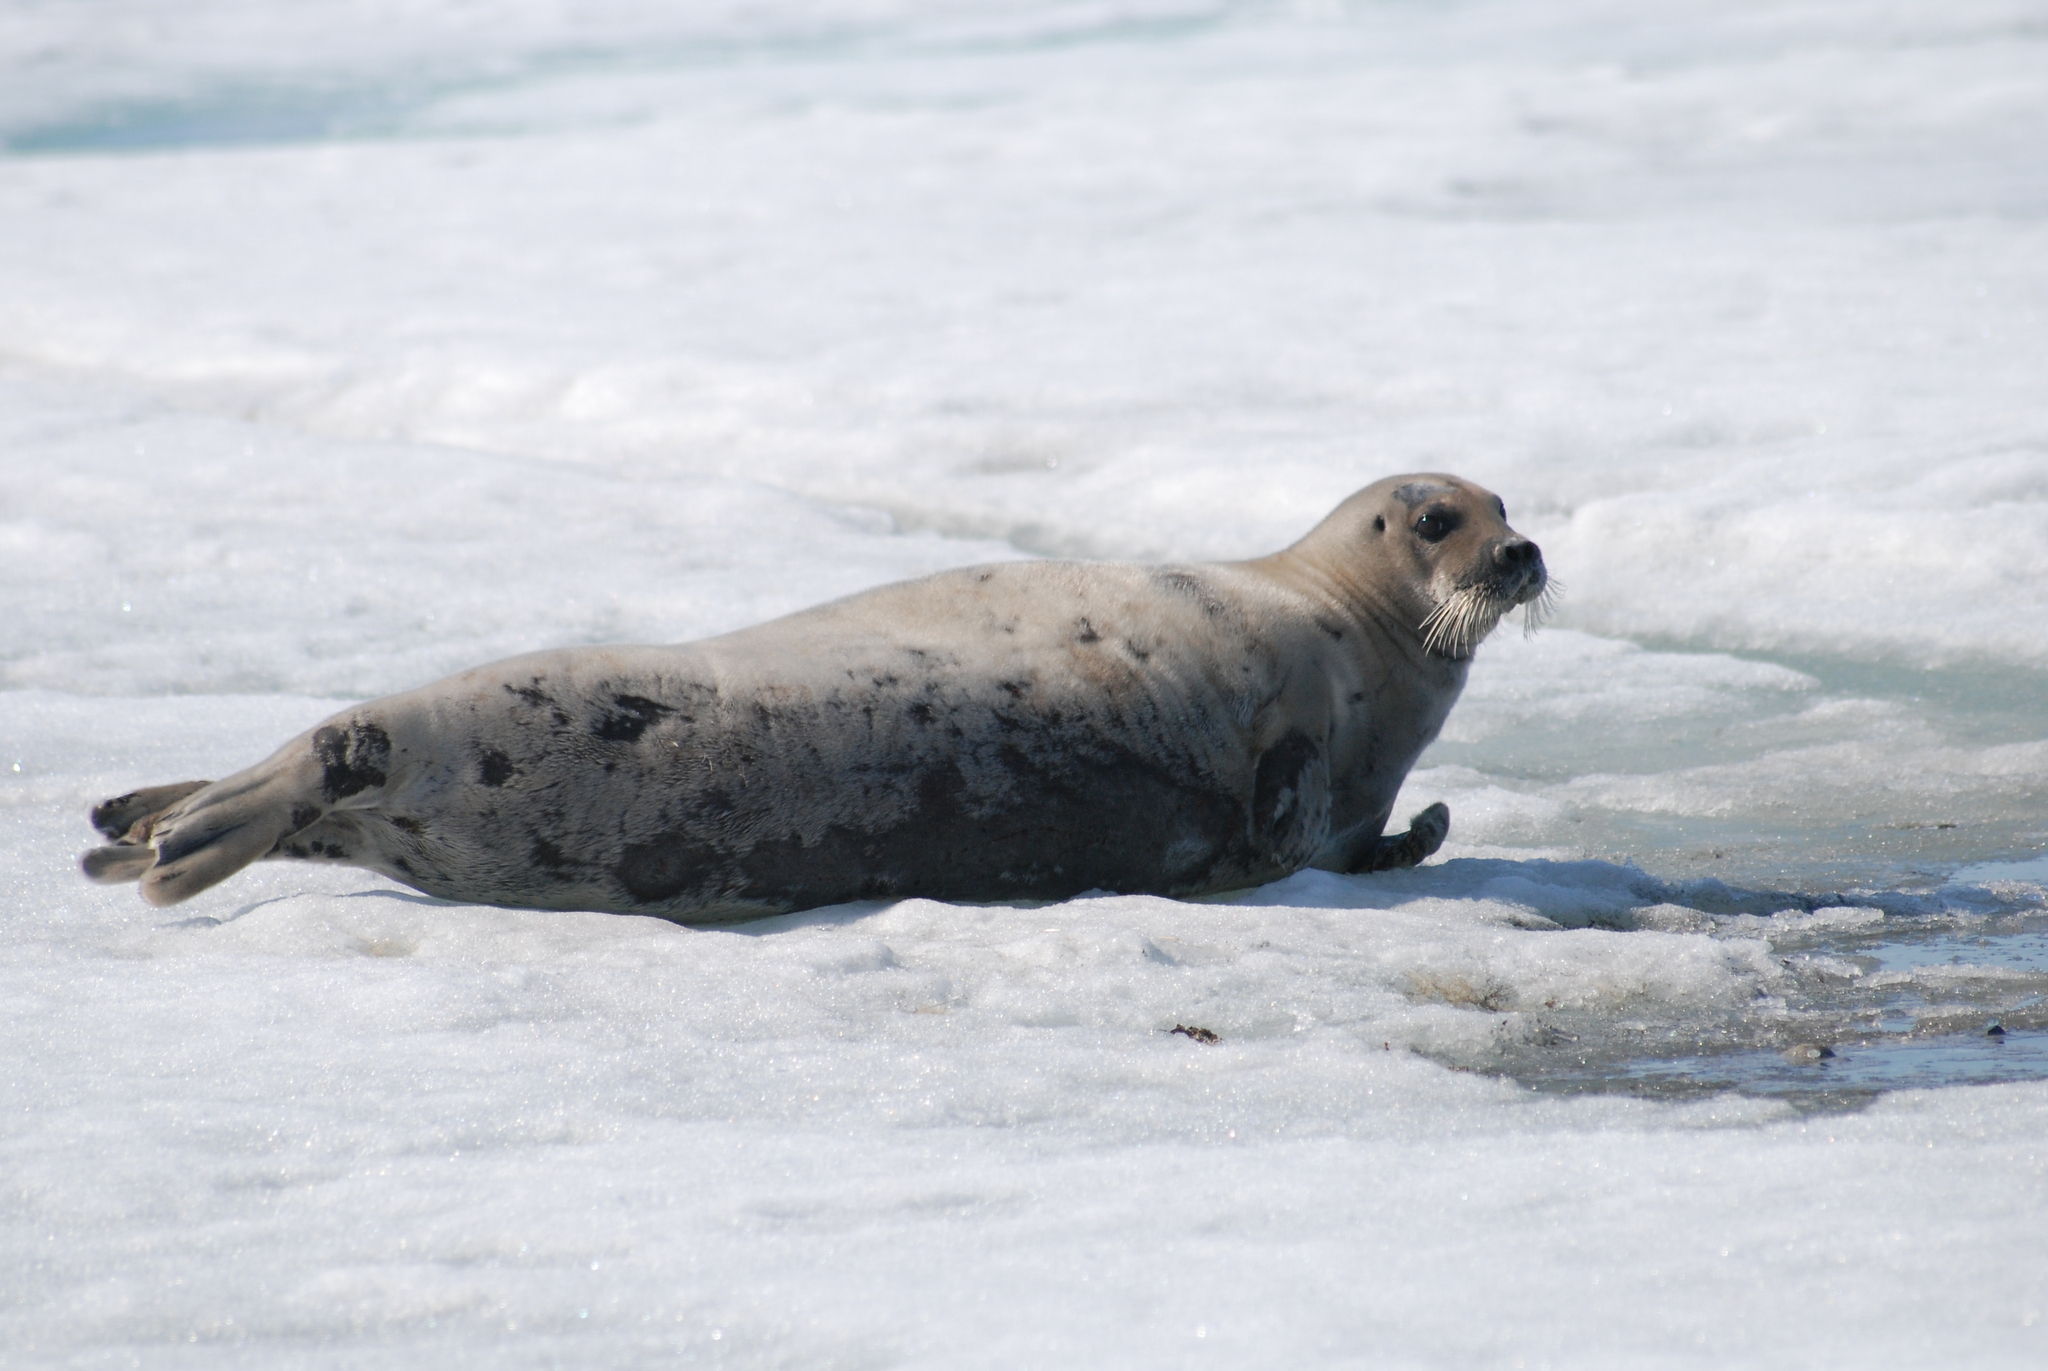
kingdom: Animalia
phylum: Chordata
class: Mammalia
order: Carnivora
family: Phocidae
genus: Erignathus
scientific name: Erignathus barbatus
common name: Bearded seal
